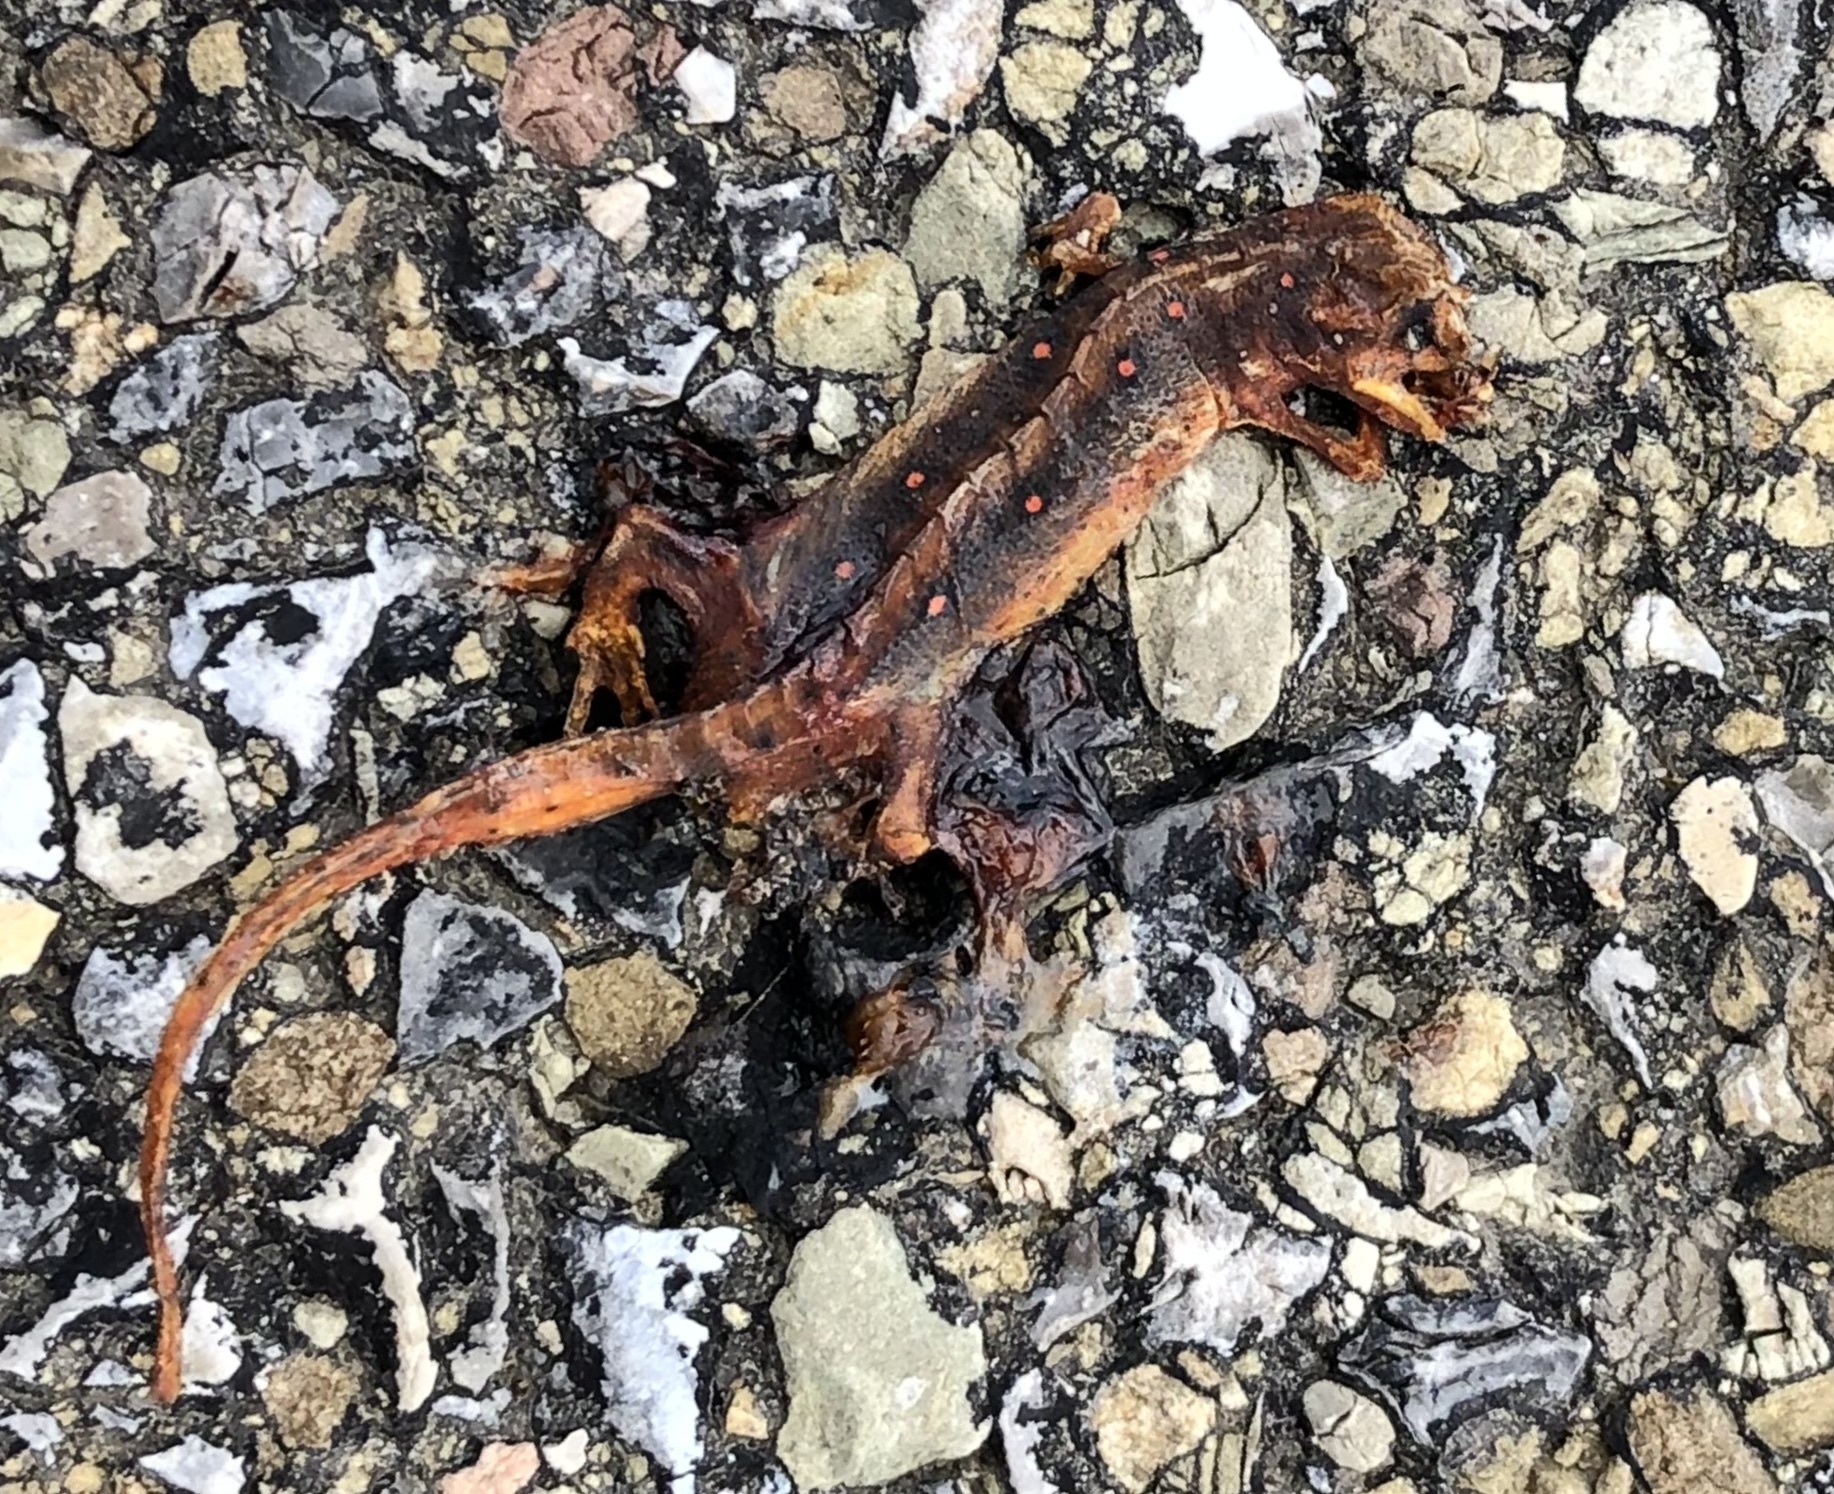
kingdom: Animalia
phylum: Chordata
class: Amphibia
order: Caudata
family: Salamandridae
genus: Notophthalmus
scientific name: Notophthalmus viridescens
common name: Eastern newt
